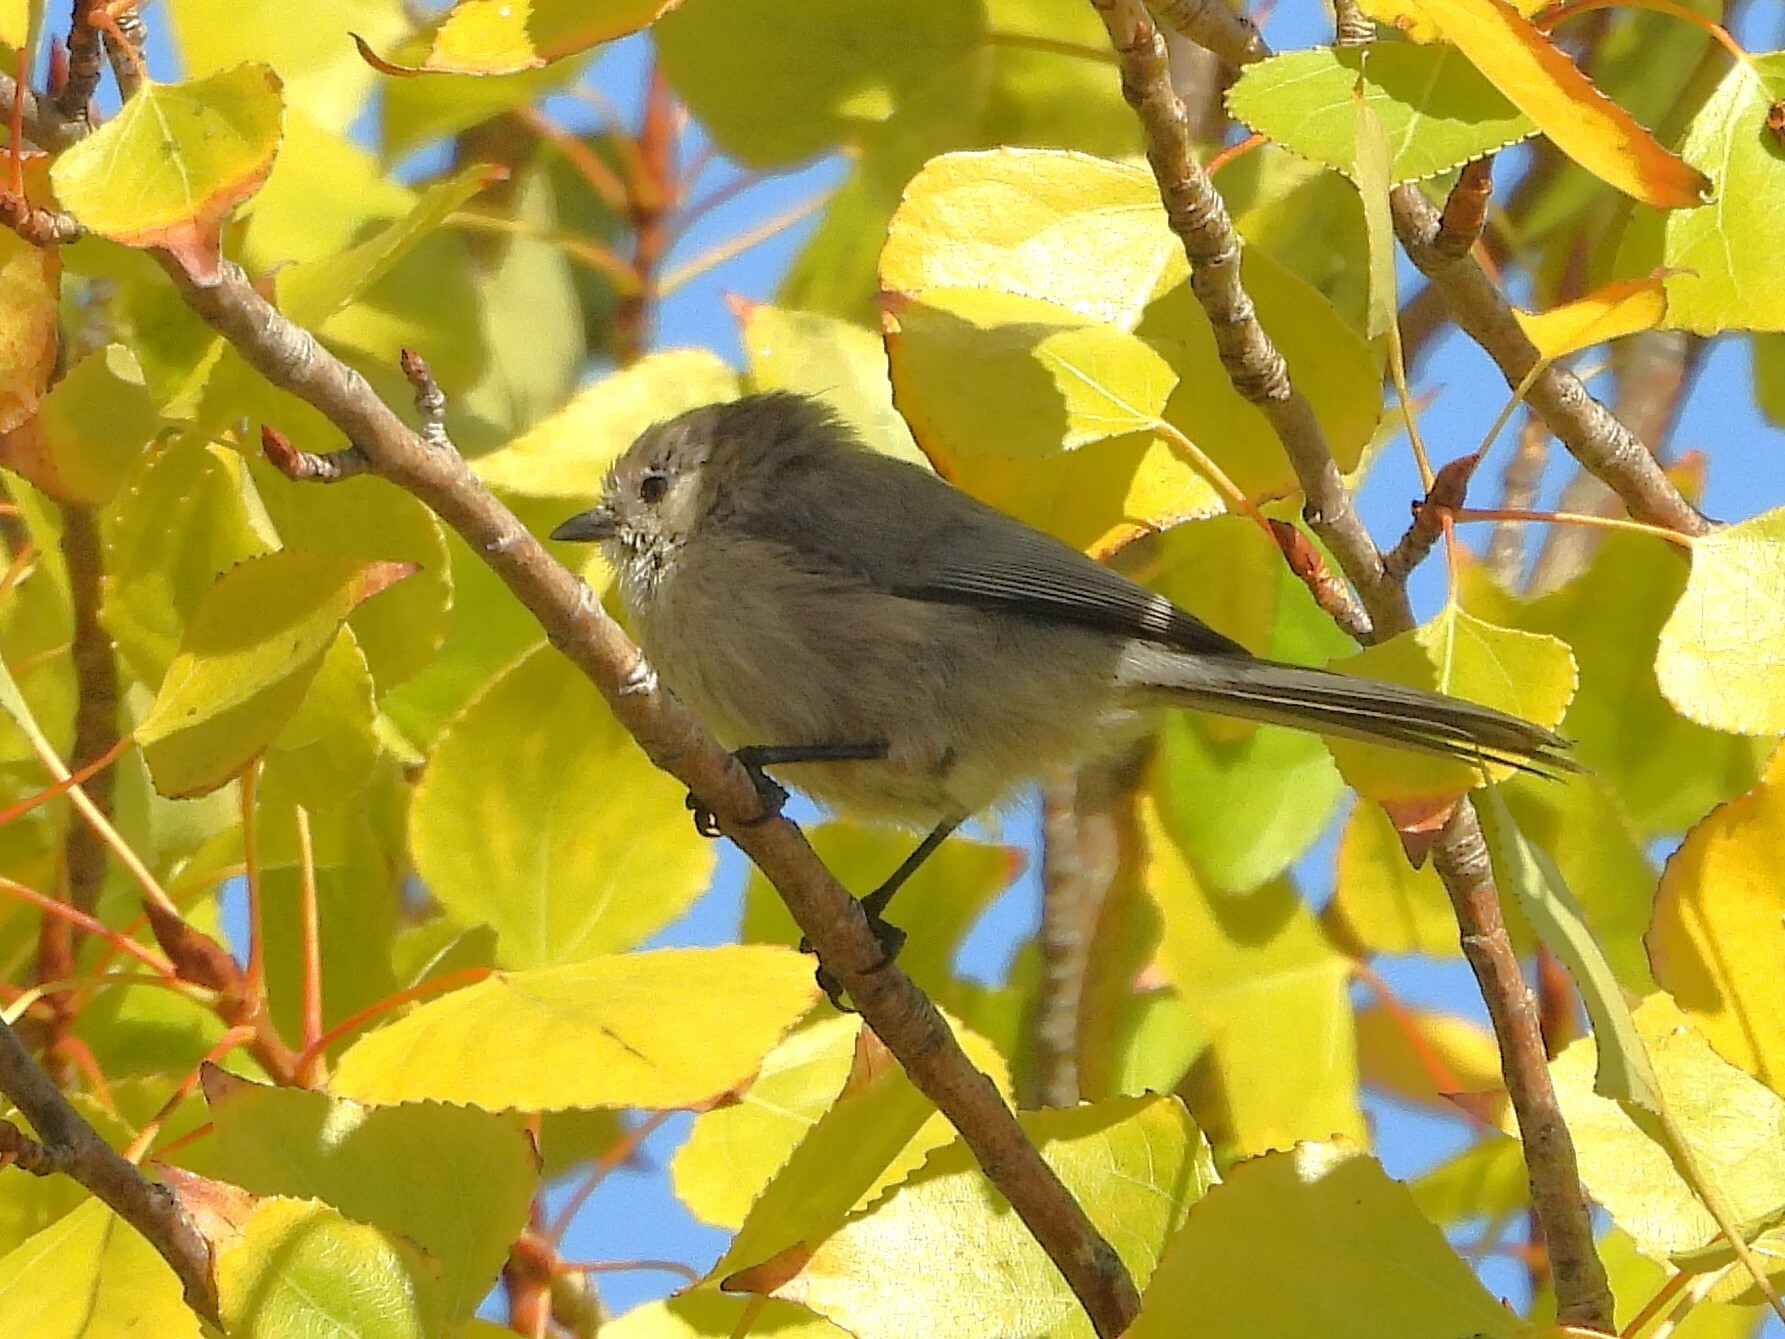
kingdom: Animalia
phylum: Chordata
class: Aves
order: Passeriformes
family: Aegithalidae
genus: Psaltriparus
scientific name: Psaltriparus minimus
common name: American bushtit
